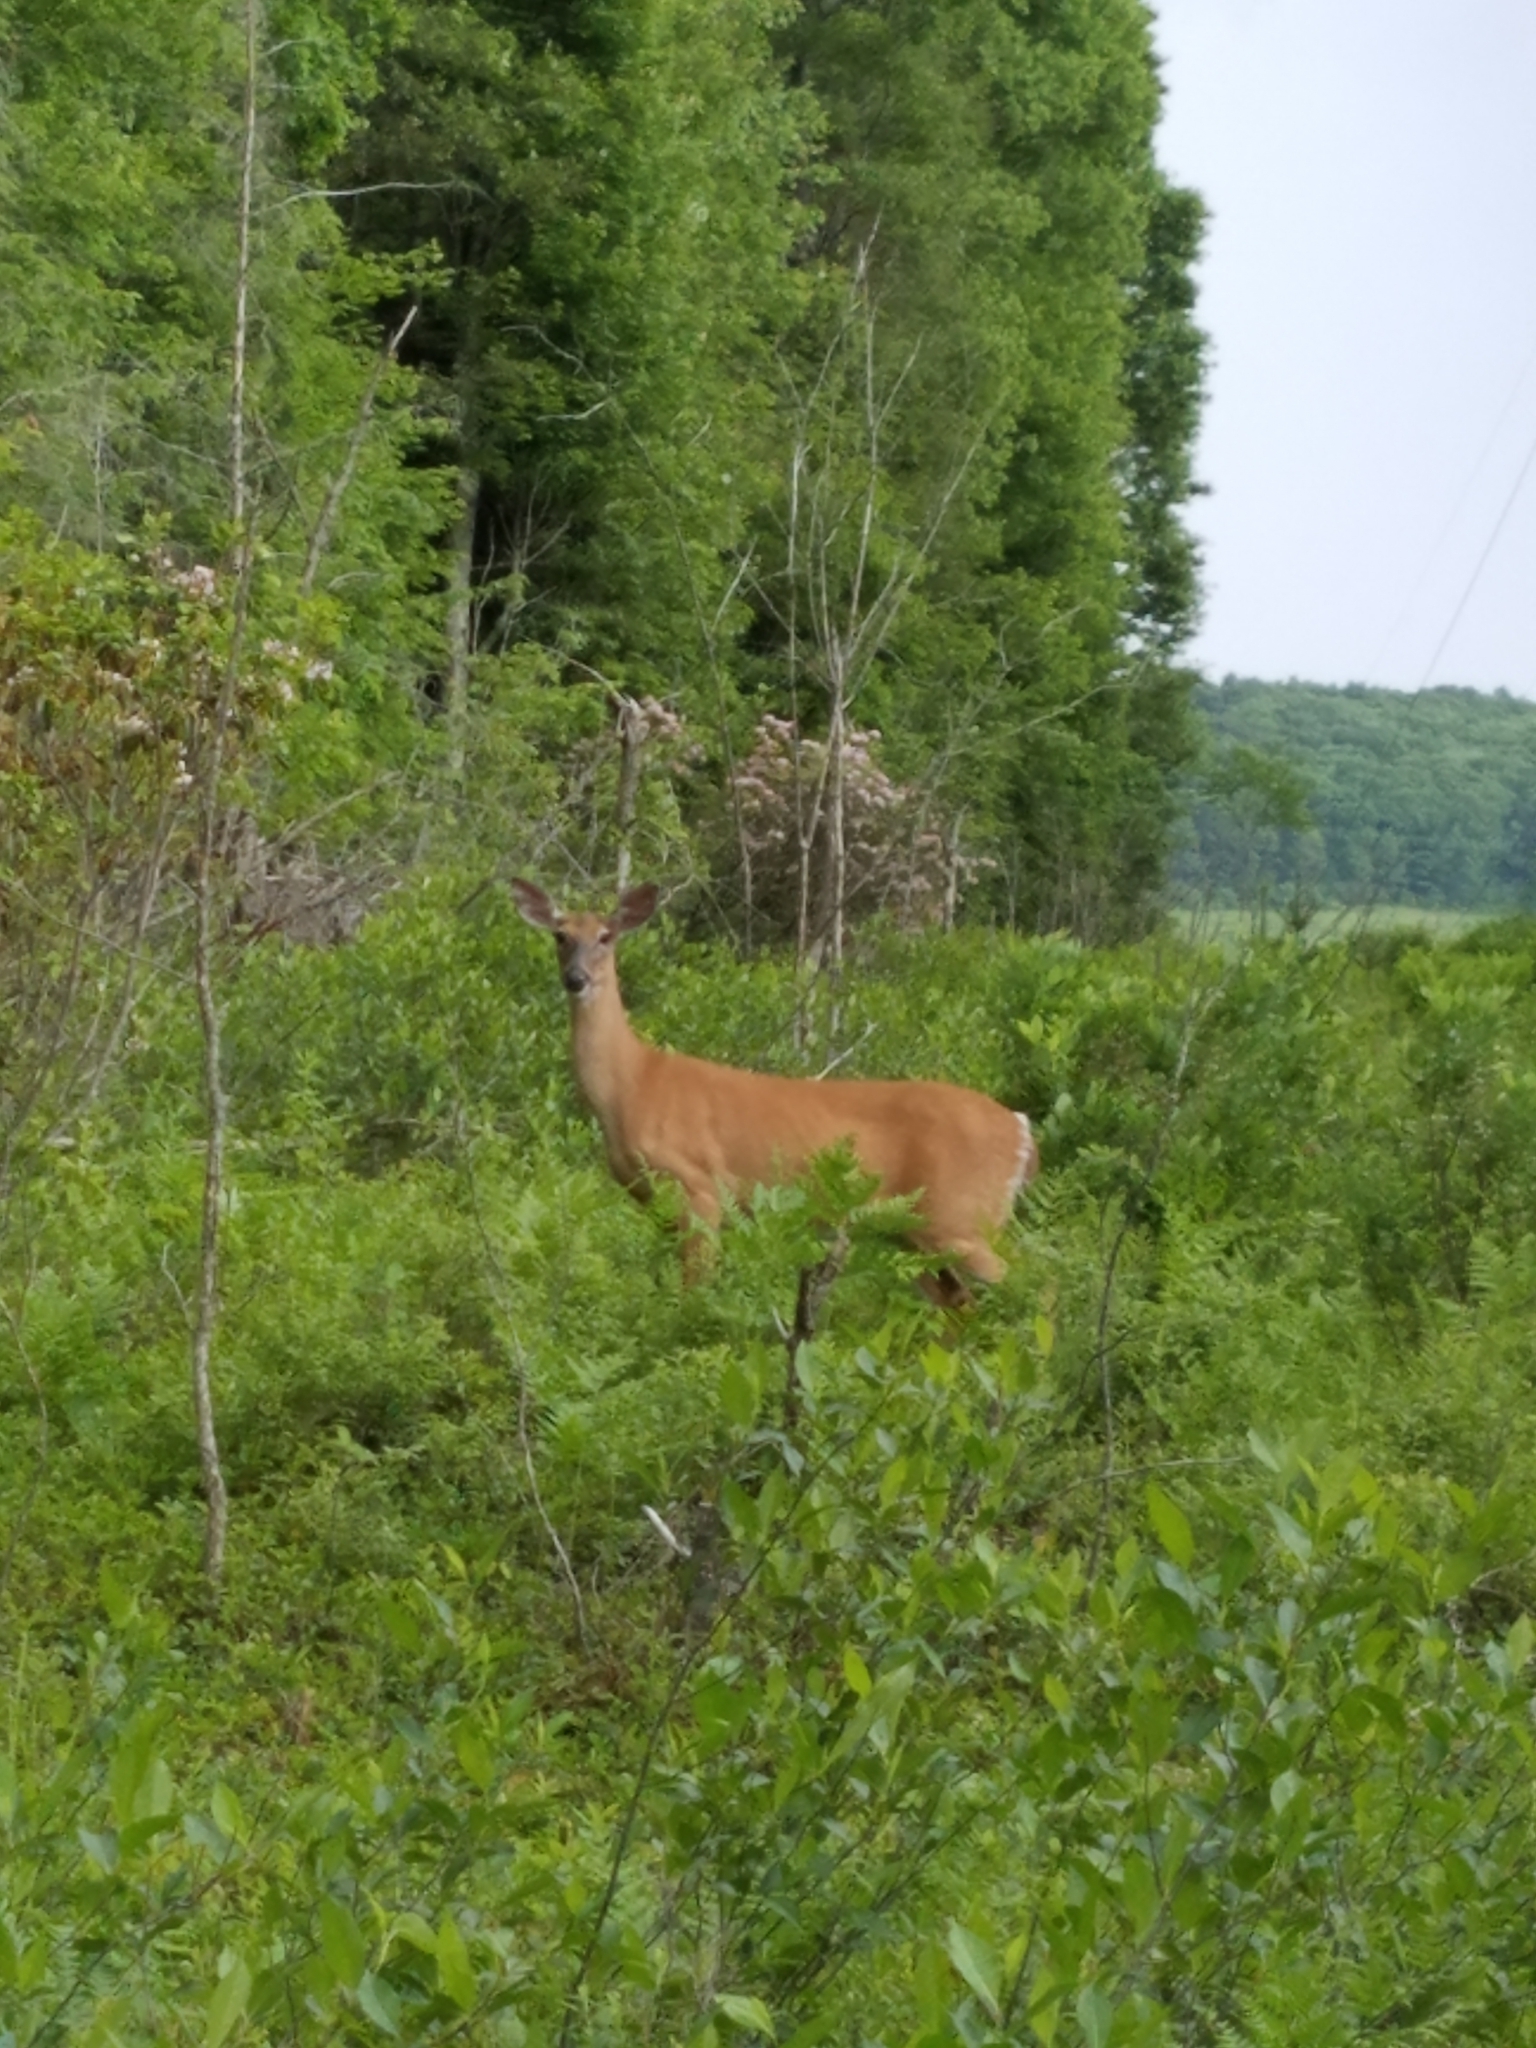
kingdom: Animalia
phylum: Chordata
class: Mammalia
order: Artiodactyla
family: Cervidae
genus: Odocoileus
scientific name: Odocoileus virginianus
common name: White-tailed deer
